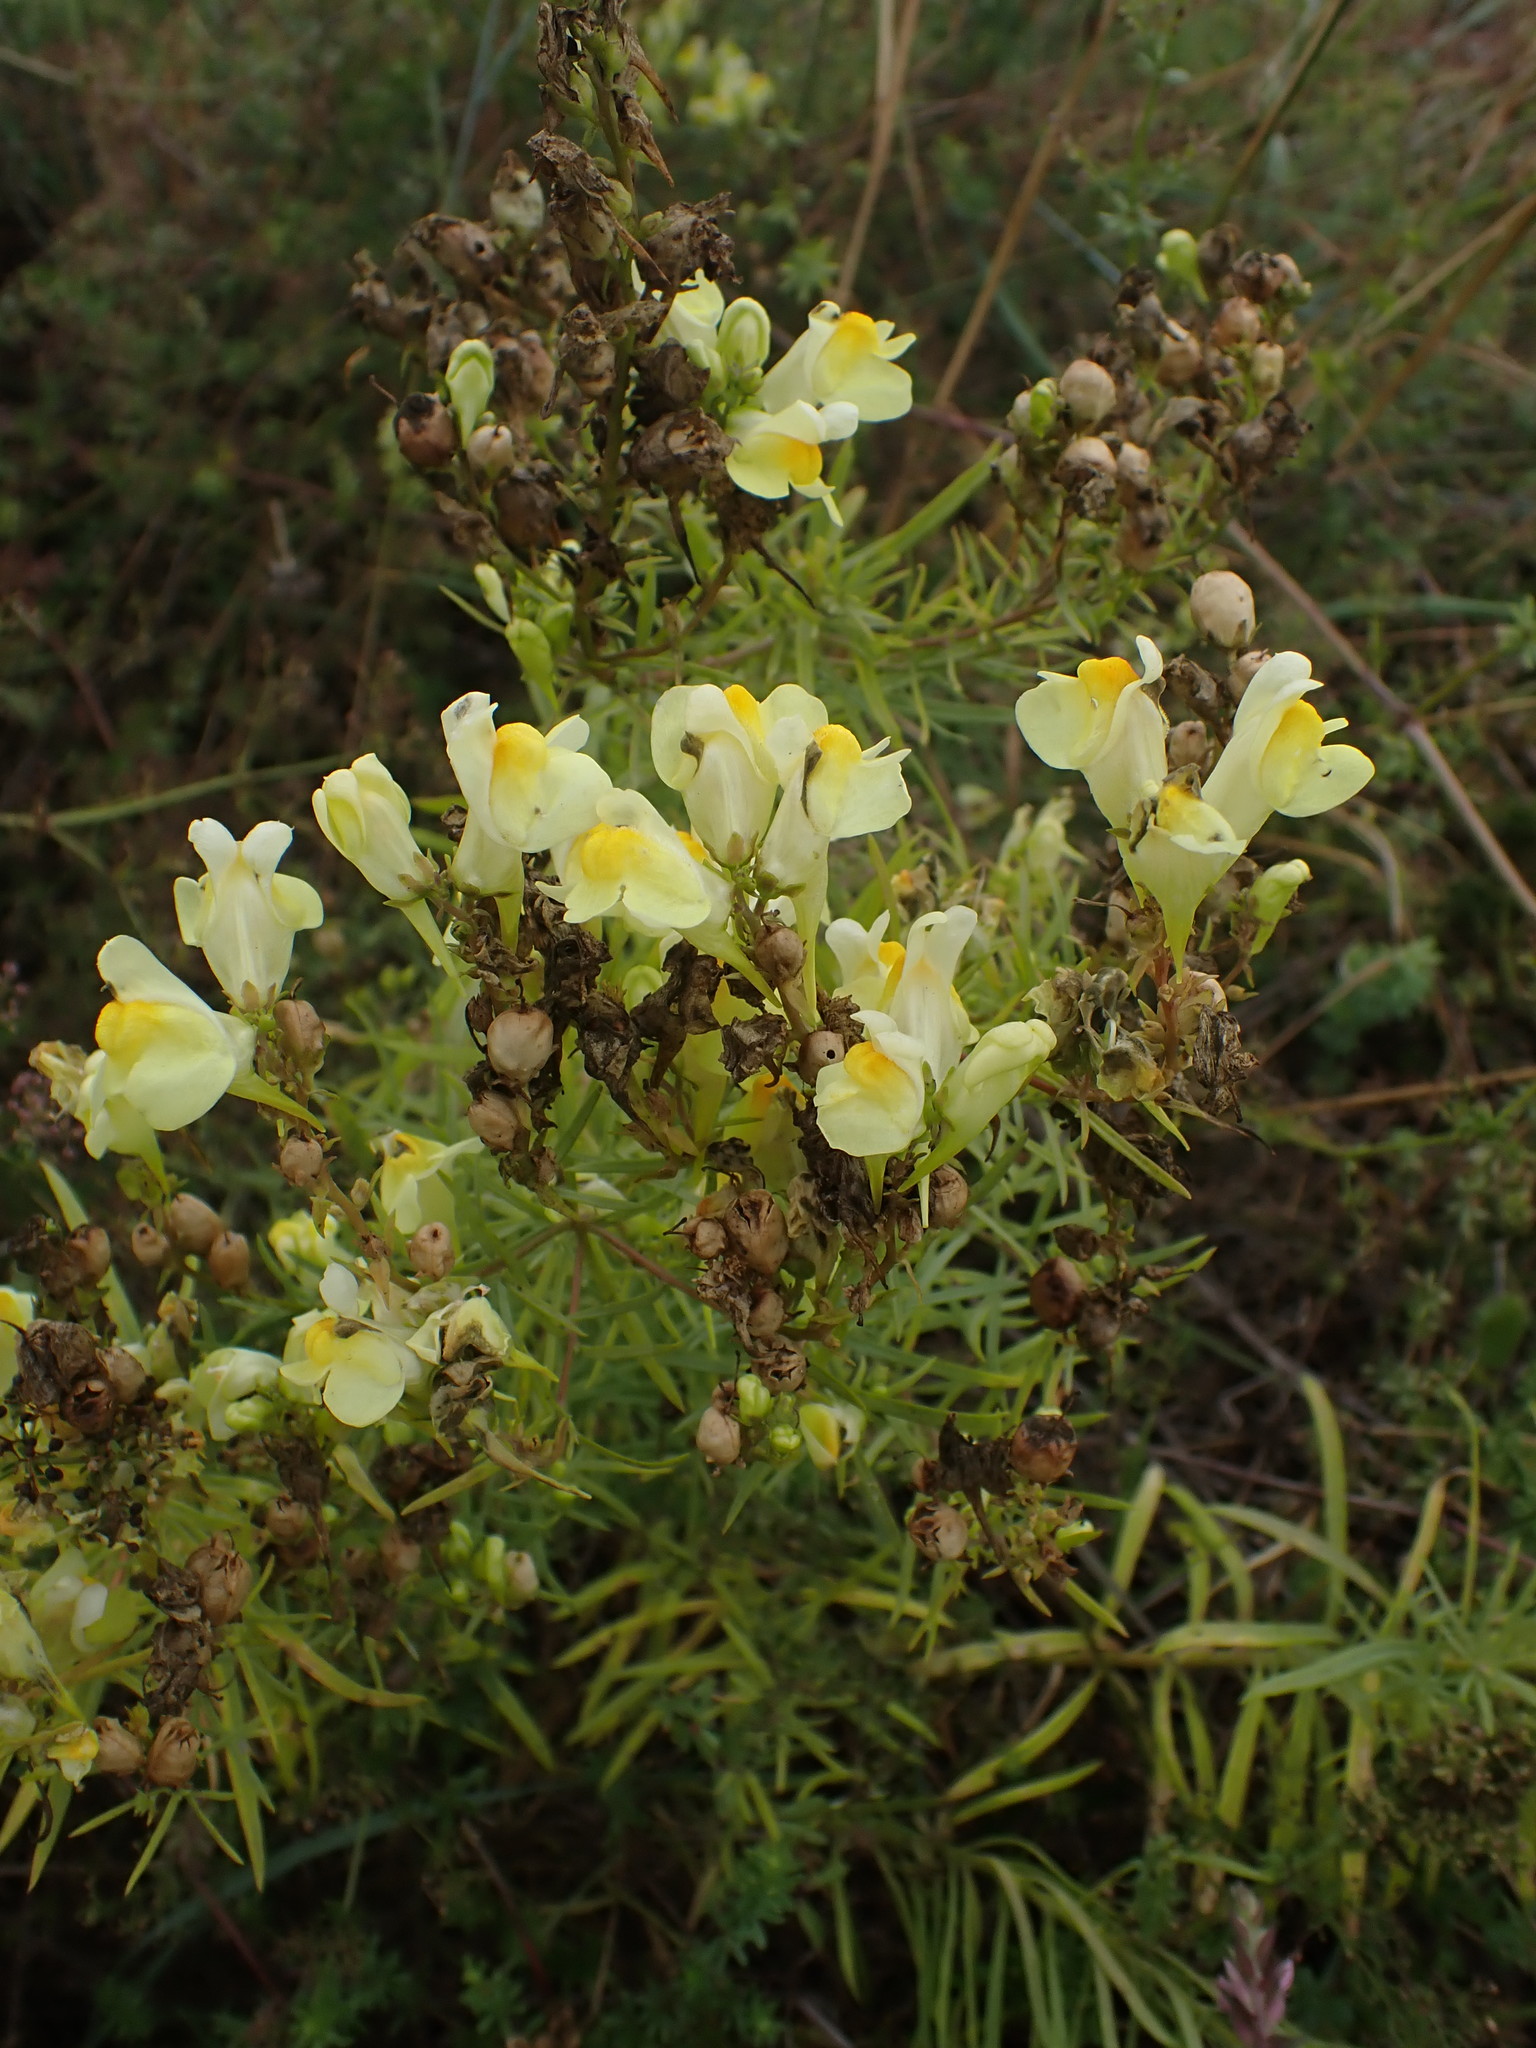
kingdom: Plantae
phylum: Tracheophyta
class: Magnoliopsida
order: Lamiales
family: Plantaginaceae
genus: Linaria
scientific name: Linaria vulgaris
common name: Butter and eggs
